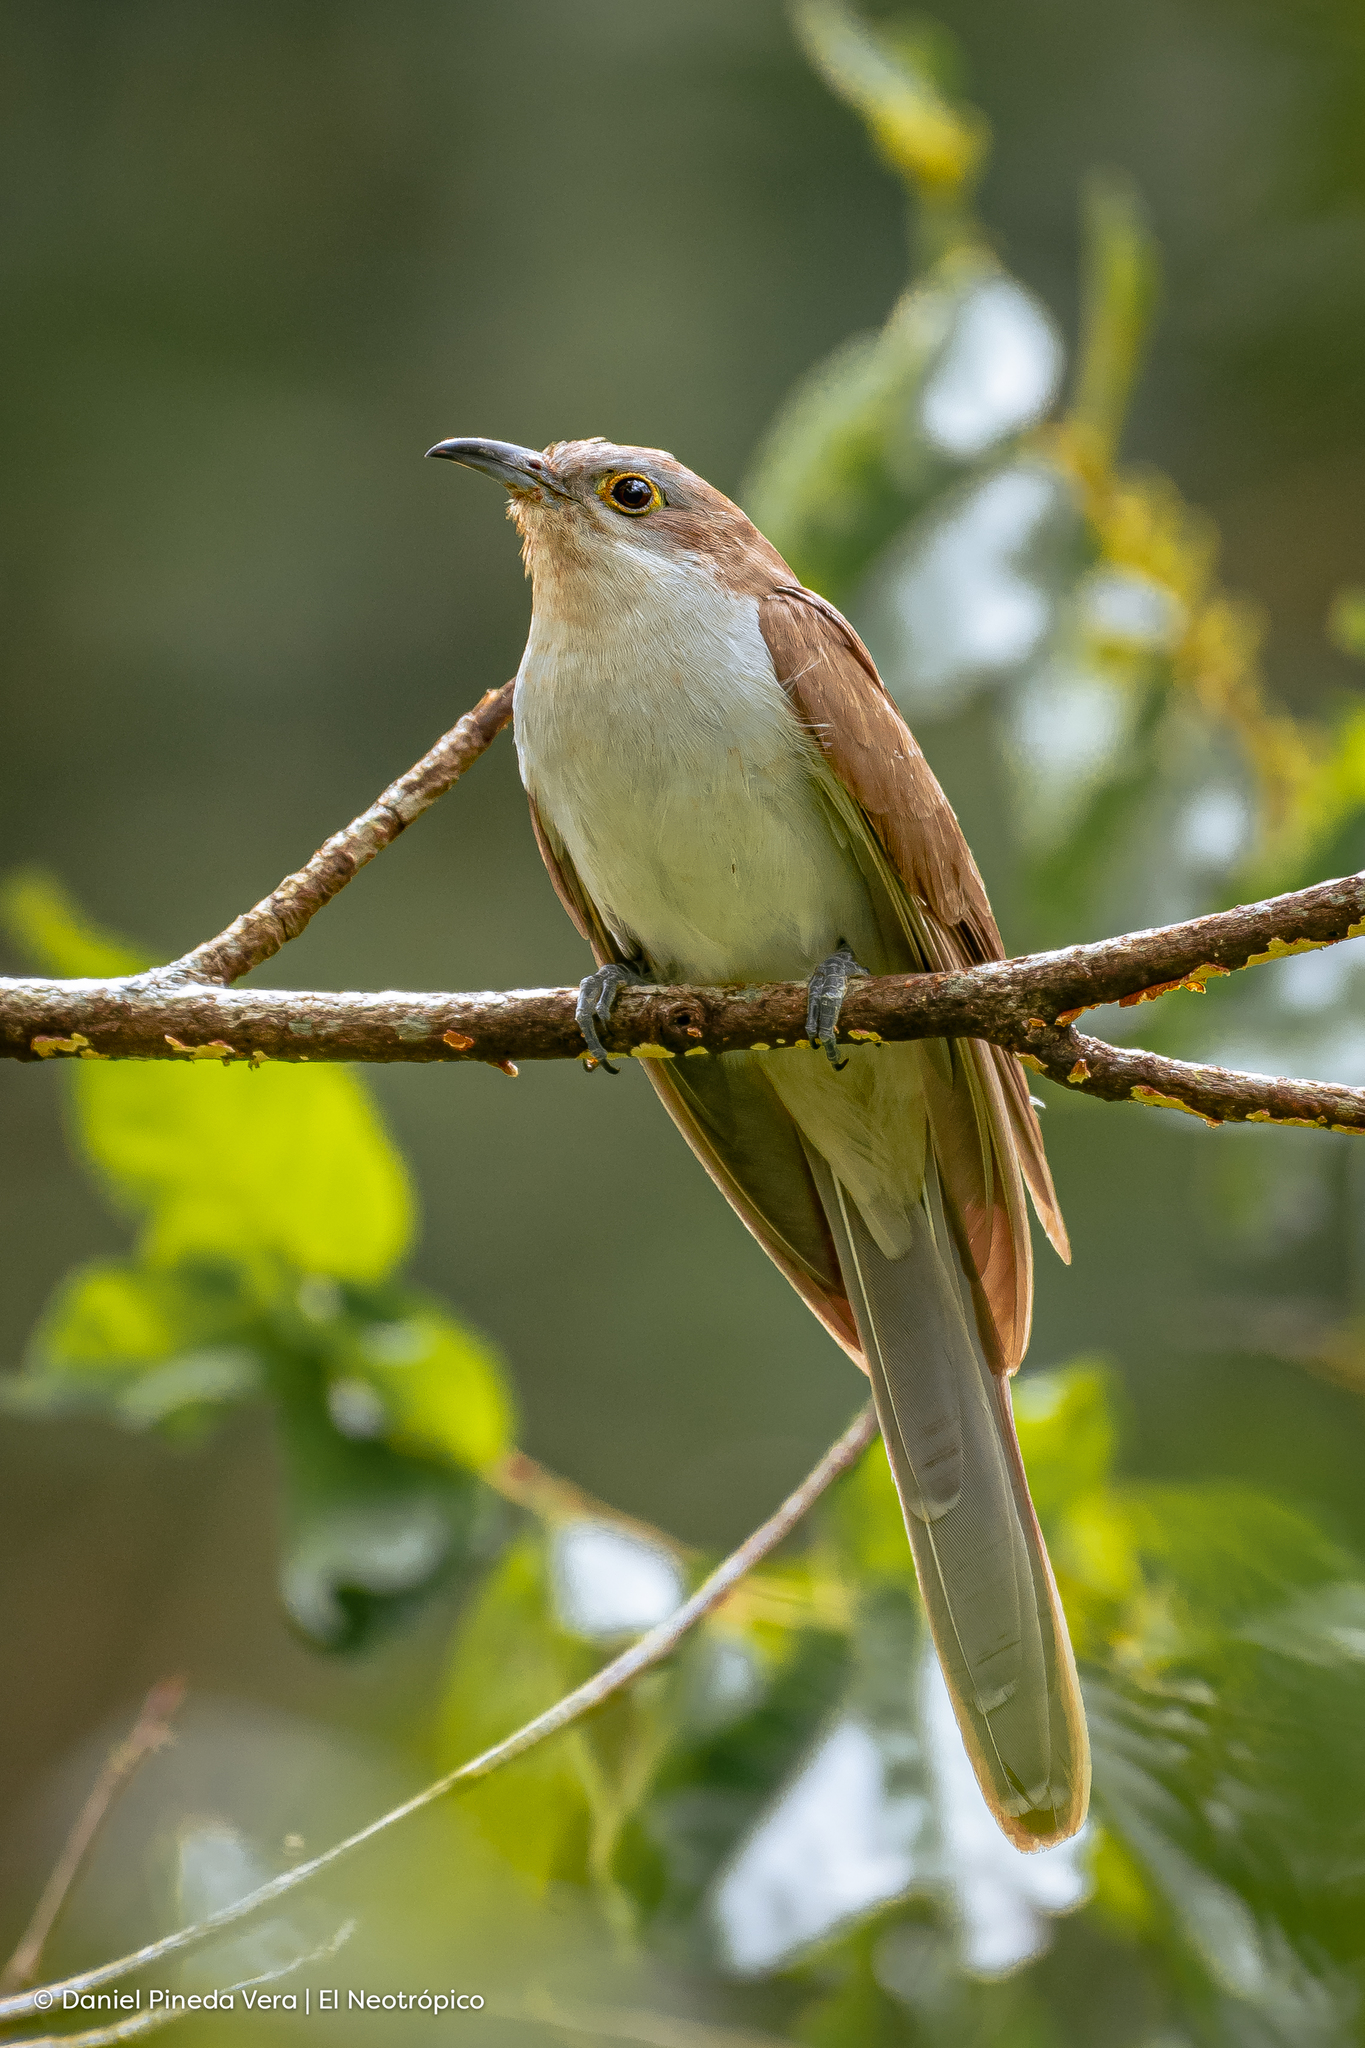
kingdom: Animalia
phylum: Chordata
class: Aves
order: Cuculiformes
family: Cuculidae
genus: Coccyzus
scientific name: Coccyzus erythropthalmus
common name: Black-billed cuckoo
